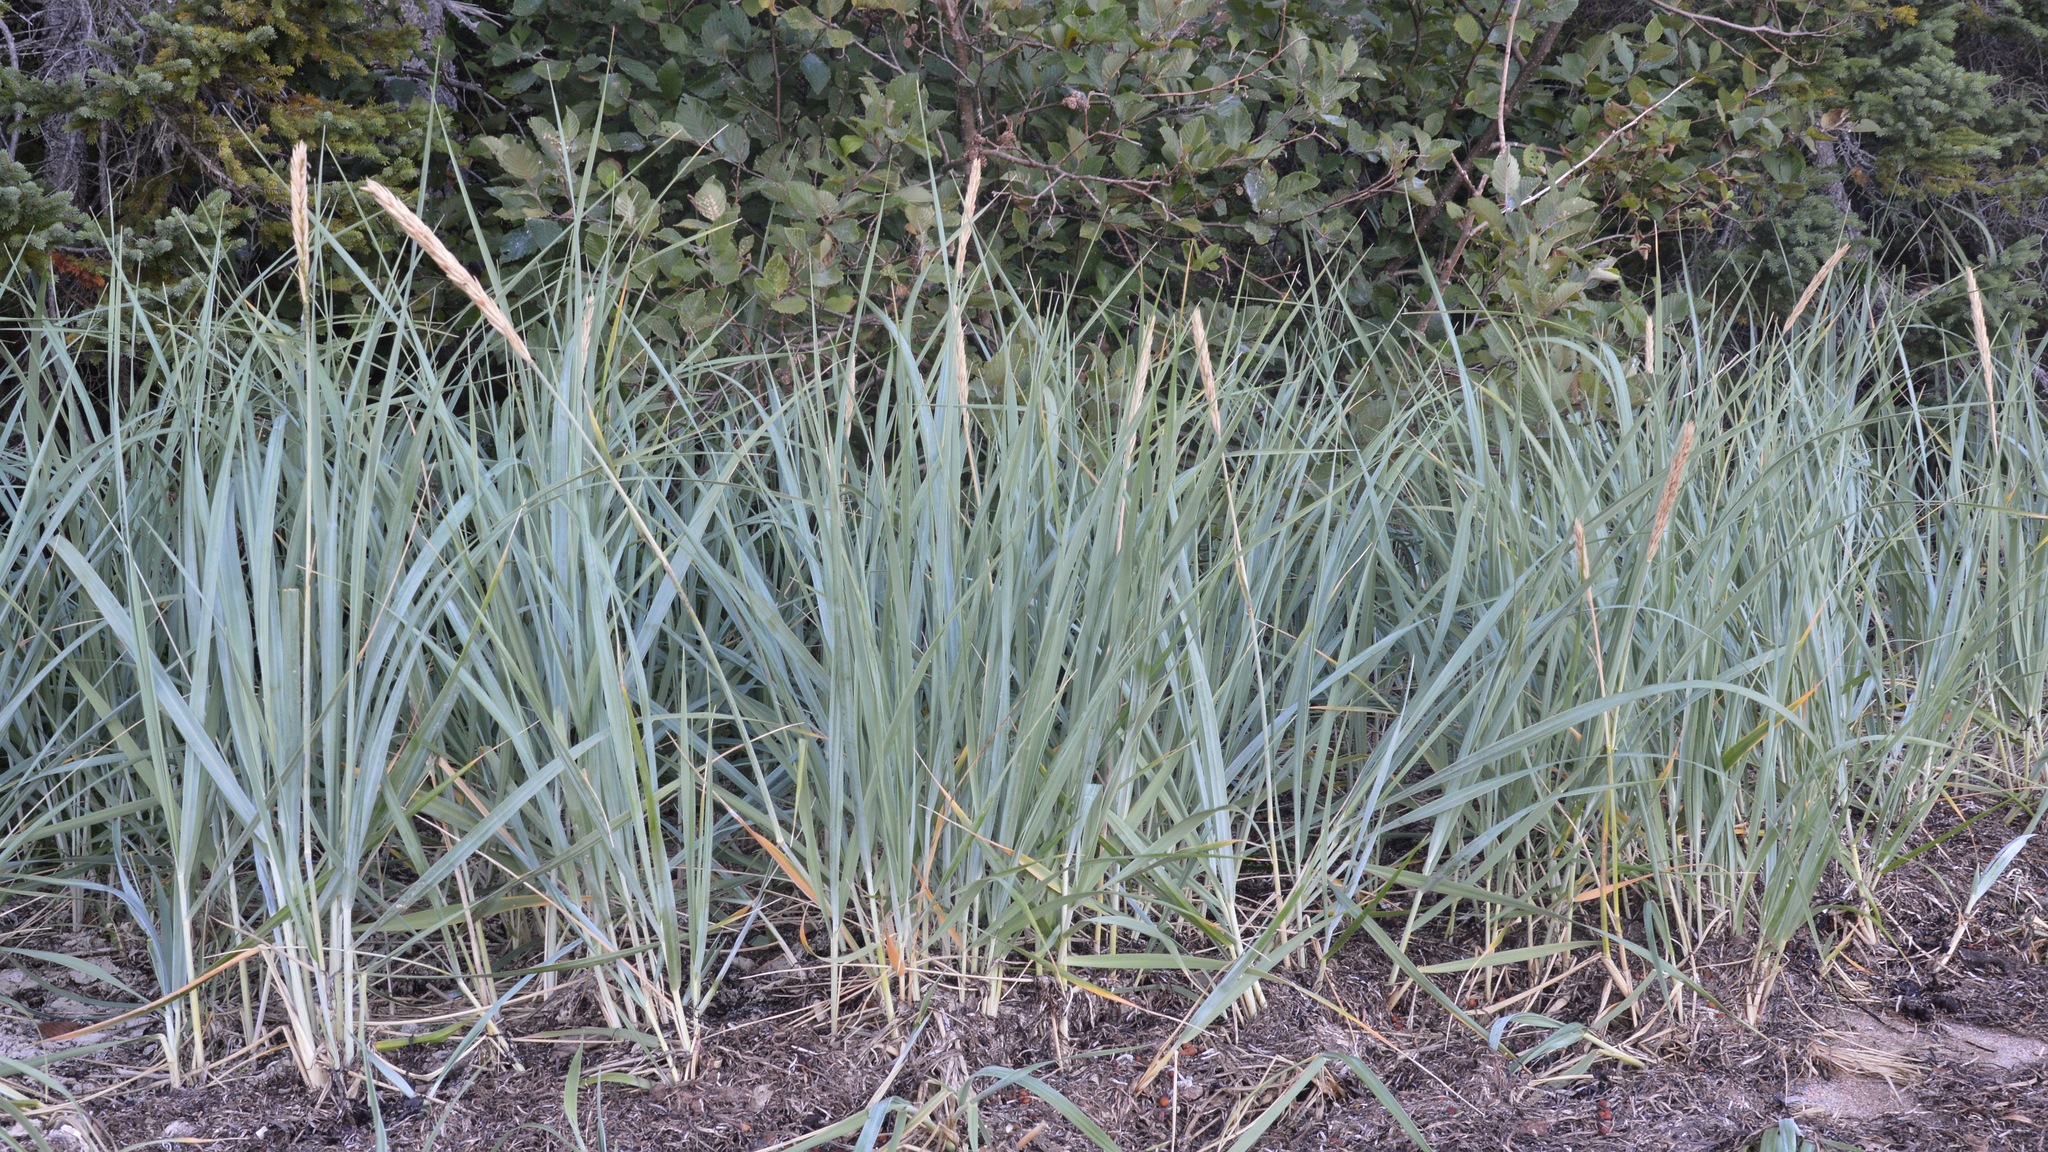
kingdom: Plantae
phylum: Tracheophyta
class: Liliopsida
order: Poales
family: Poaceae
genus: Leymus
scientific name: Leymus mollis
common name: American dune grass
